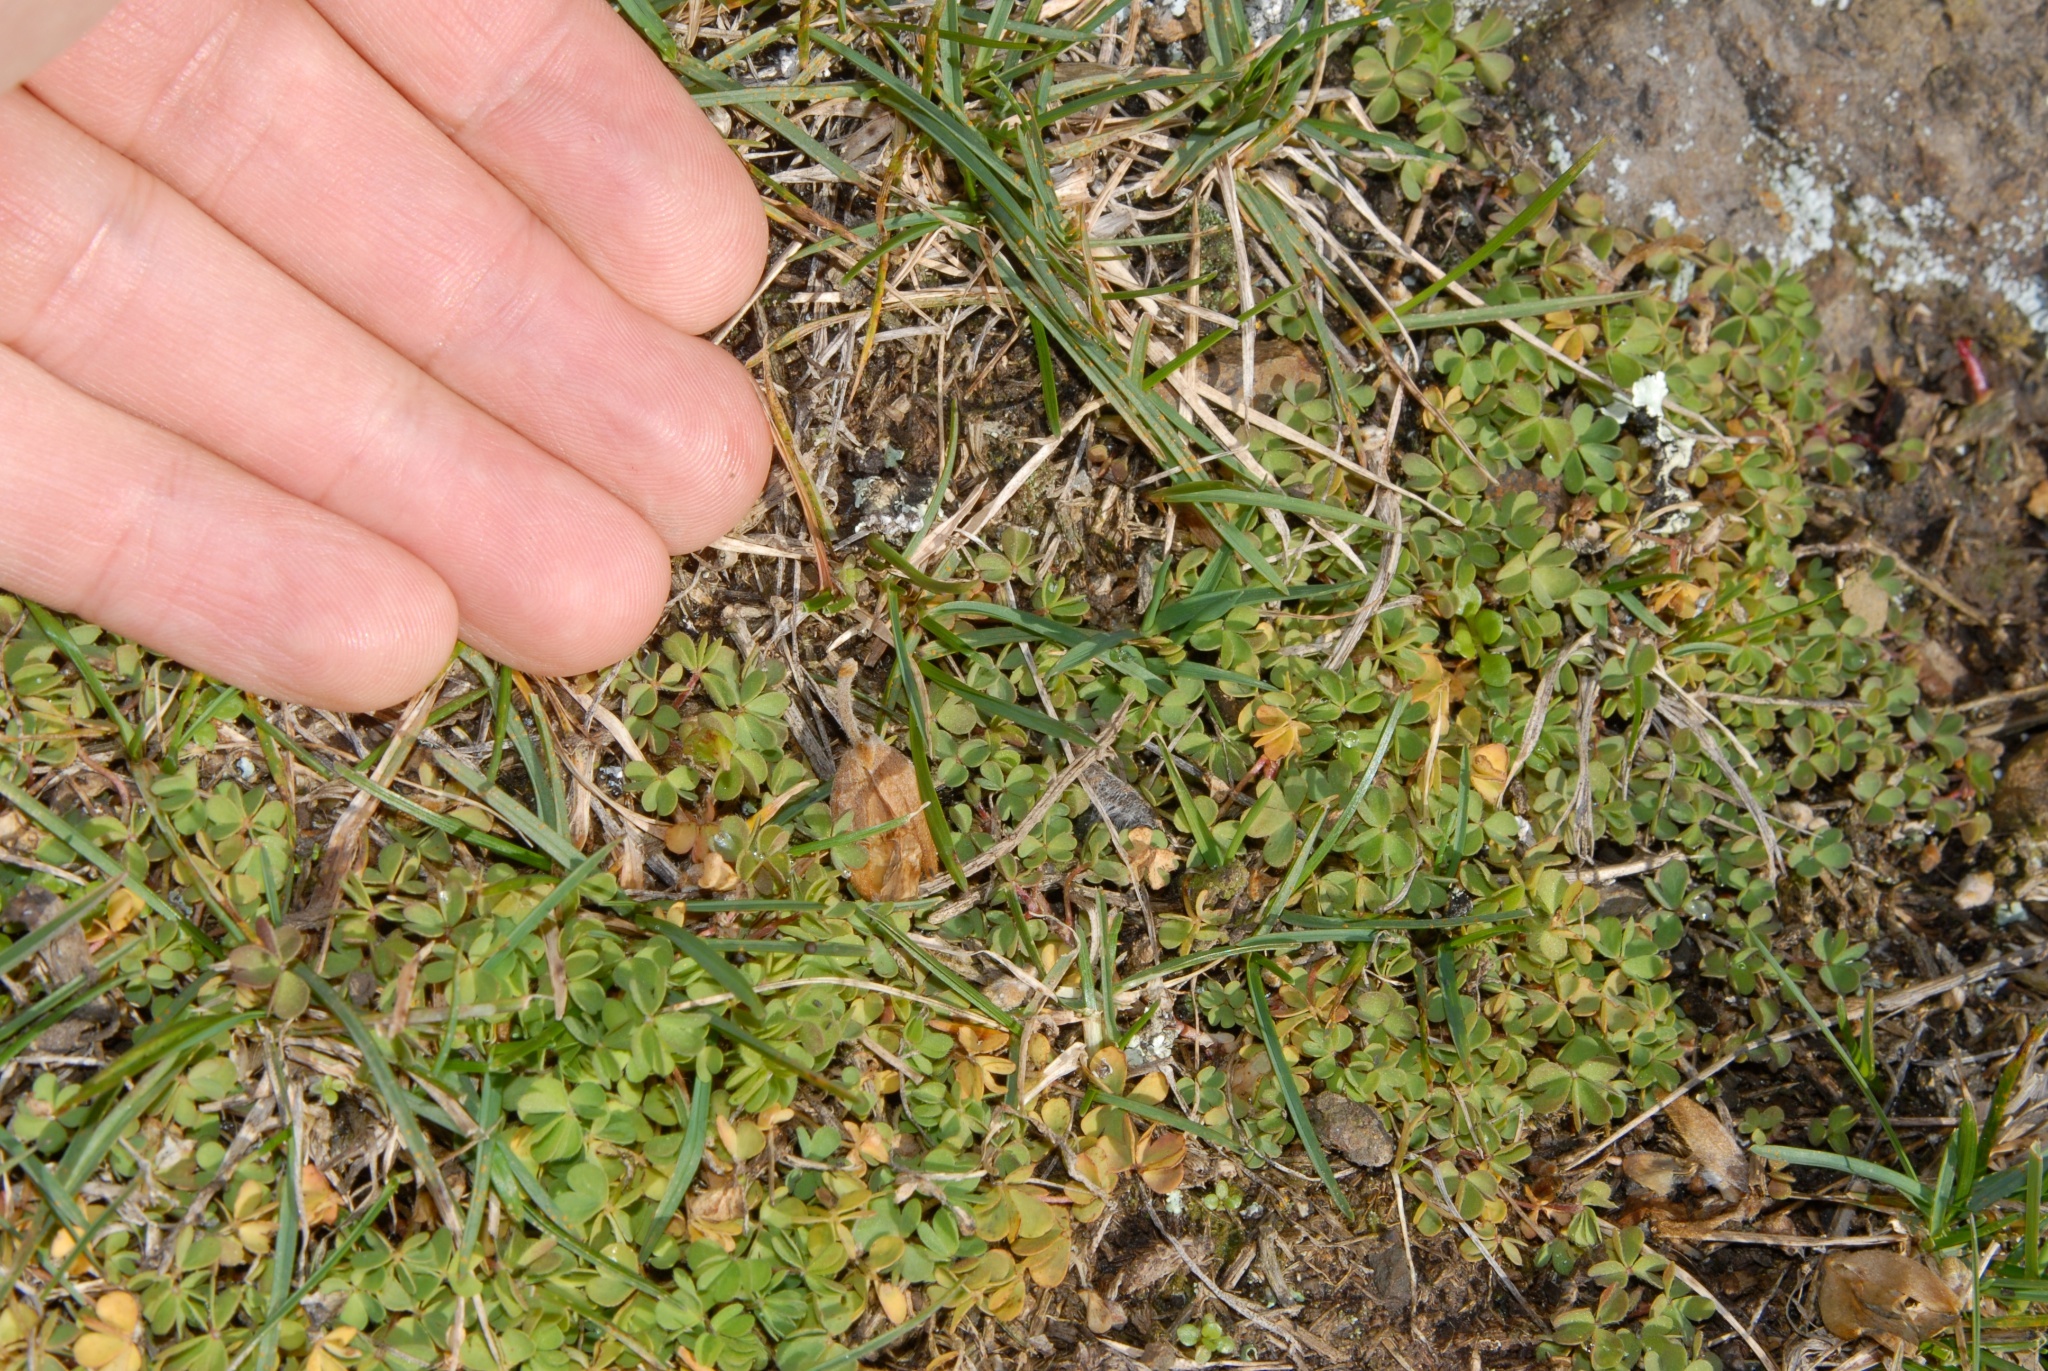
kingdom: Plantae
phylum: Tracheophyta
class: Magnoliopsida
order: Oxalidales
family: Oxalidaceae
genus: Oxalis
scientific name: Oxalis exilis
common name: Least yellow-sorrel
